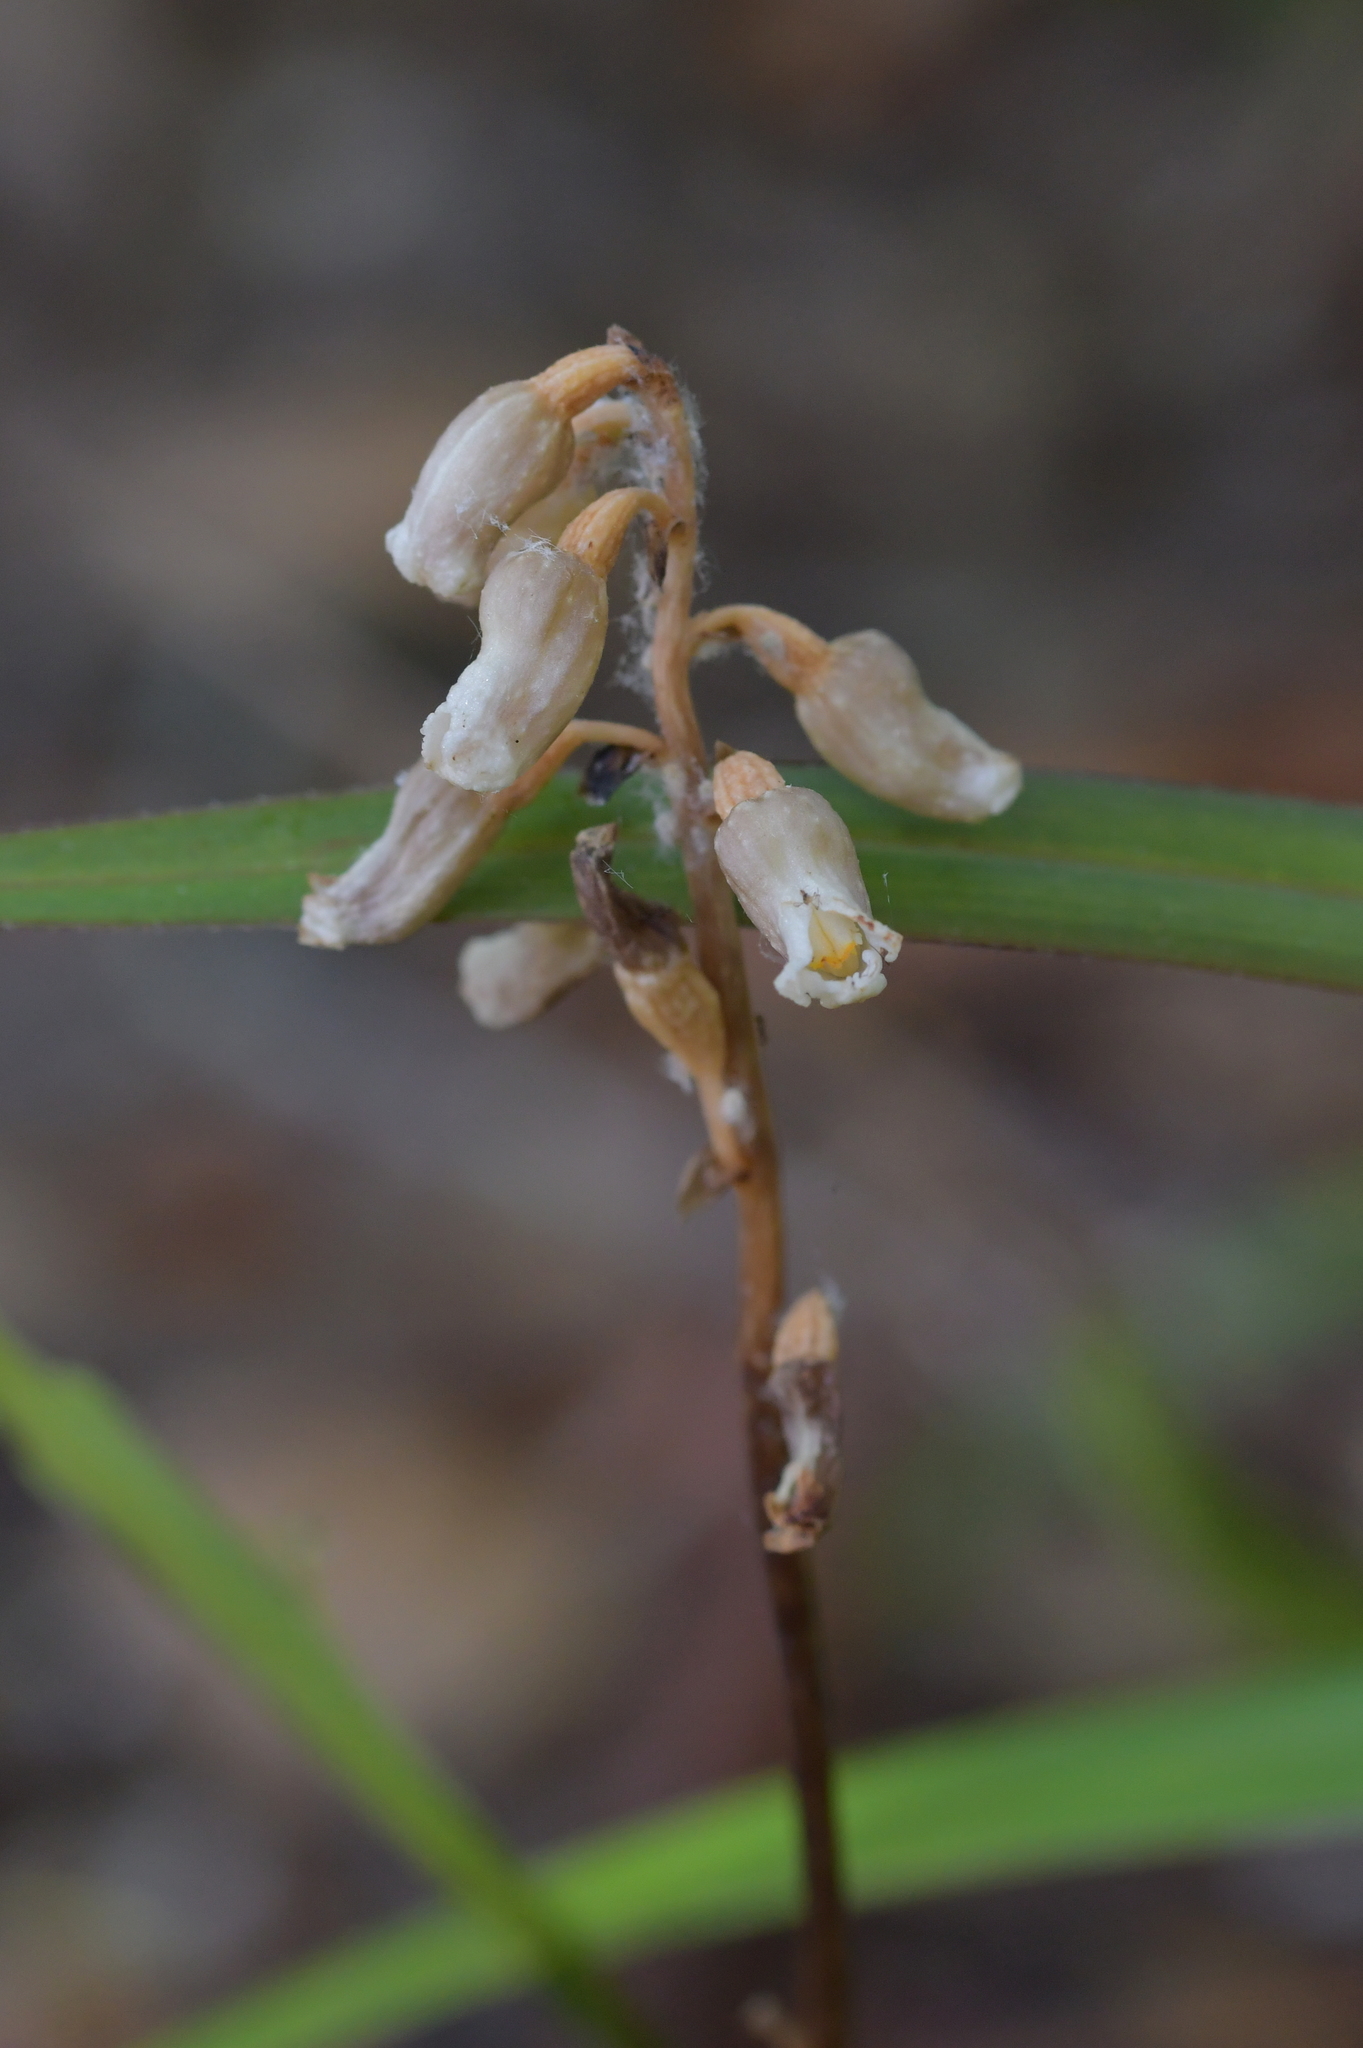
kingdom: Plantae
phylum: Tracheophyta
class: Liliopsida
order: Asparagales
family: Orchidaceae
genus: Gastrodia
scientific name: Gastrodia sesamoides
